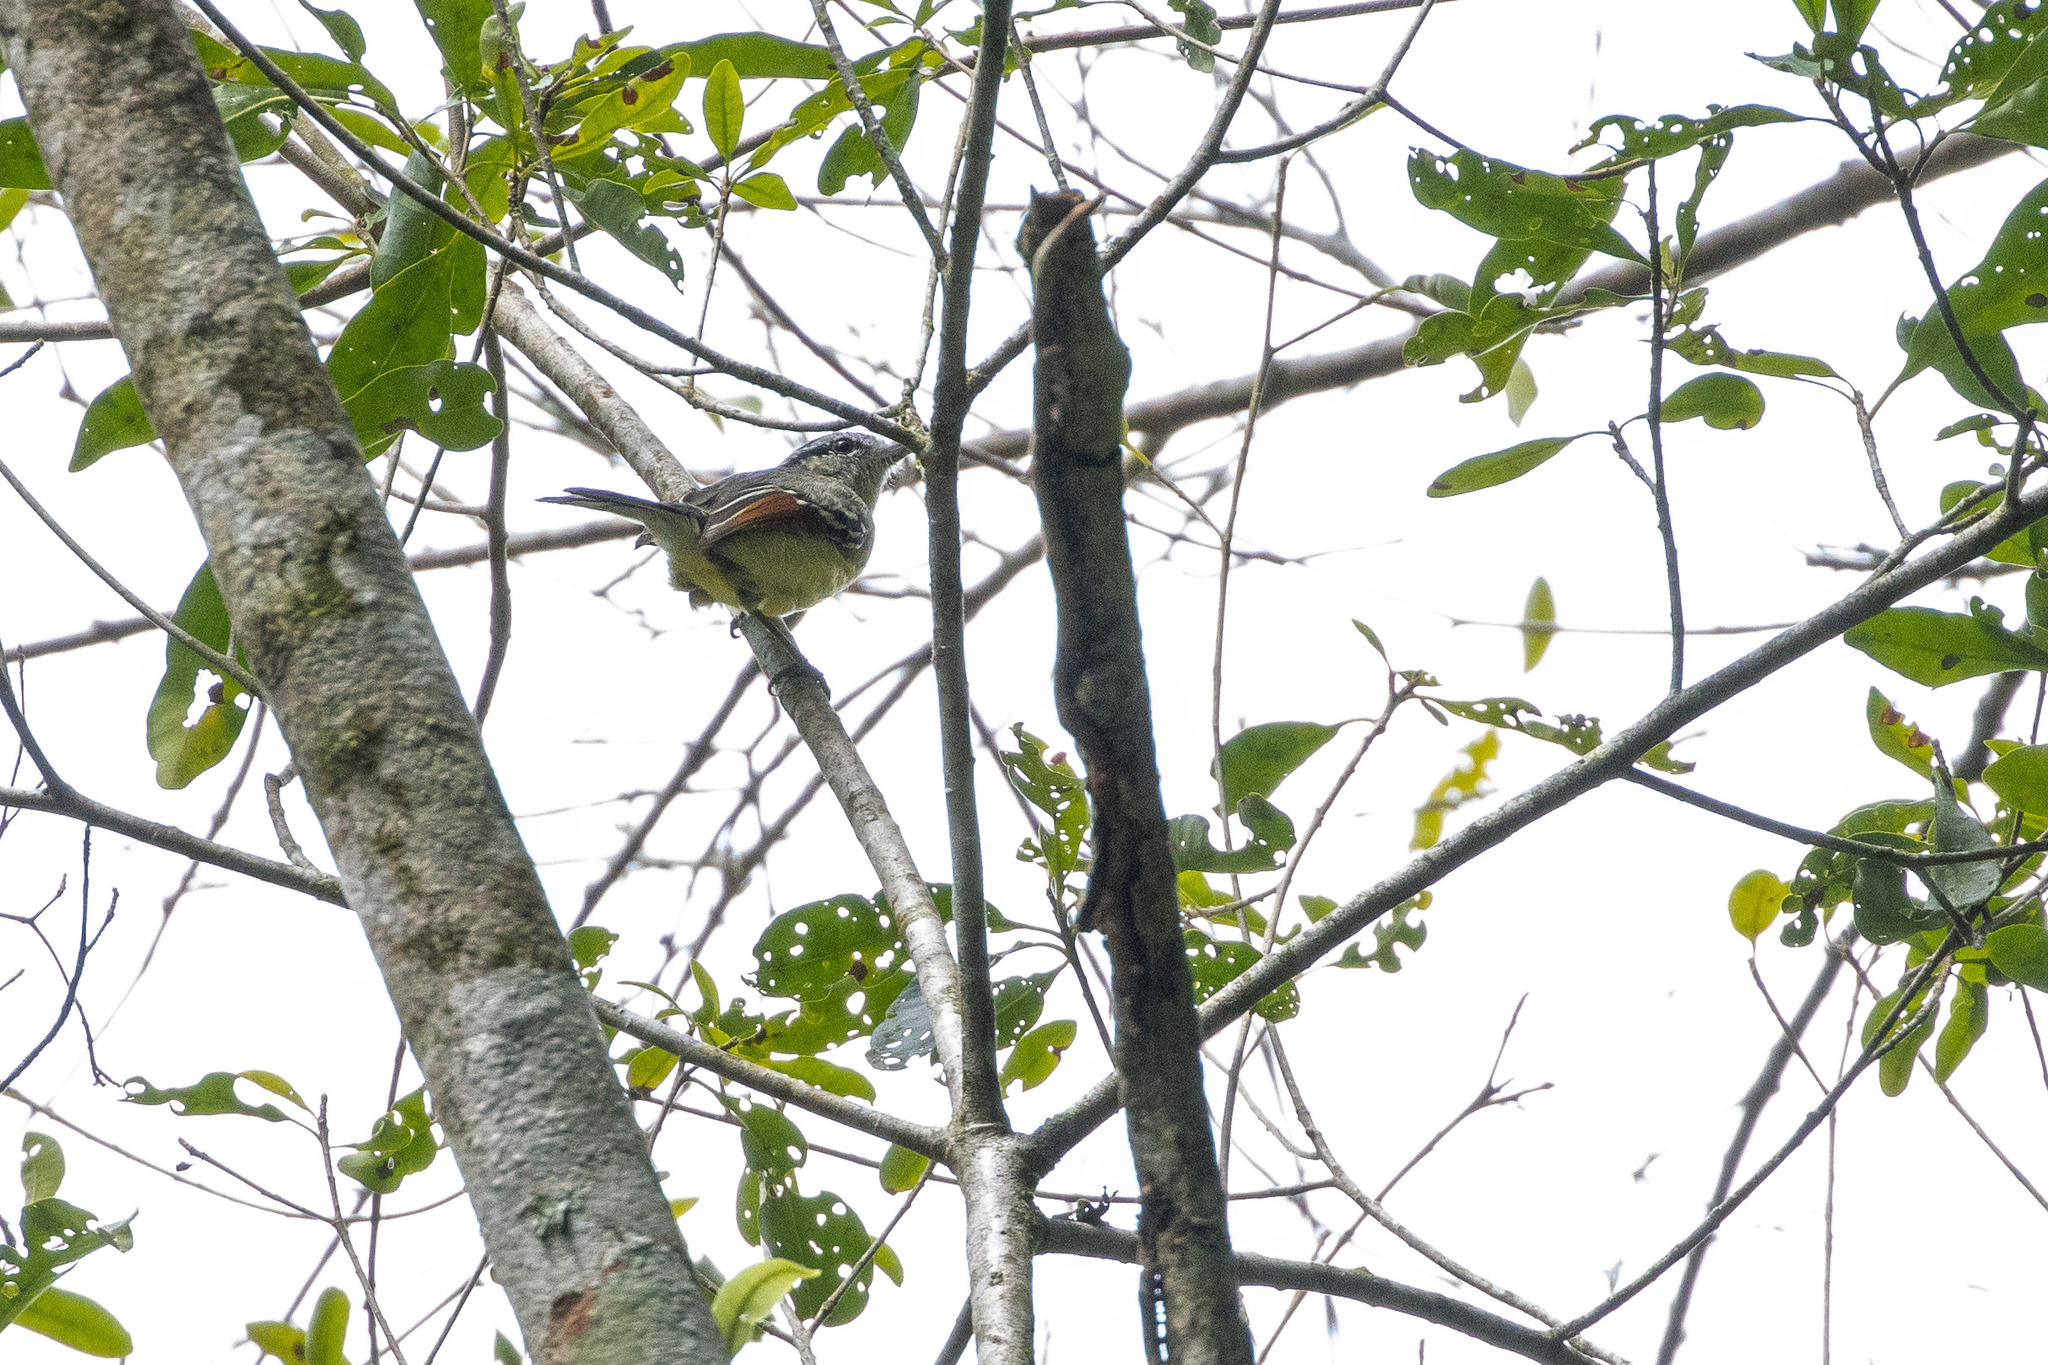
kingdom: Animalia
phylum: Chordata
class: Aves
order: Passeriformes
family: Thamnophilidae
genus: Herpsilochmus
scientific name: Herpsilochmus rufimarginatus
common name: Rufous-winged antwren
